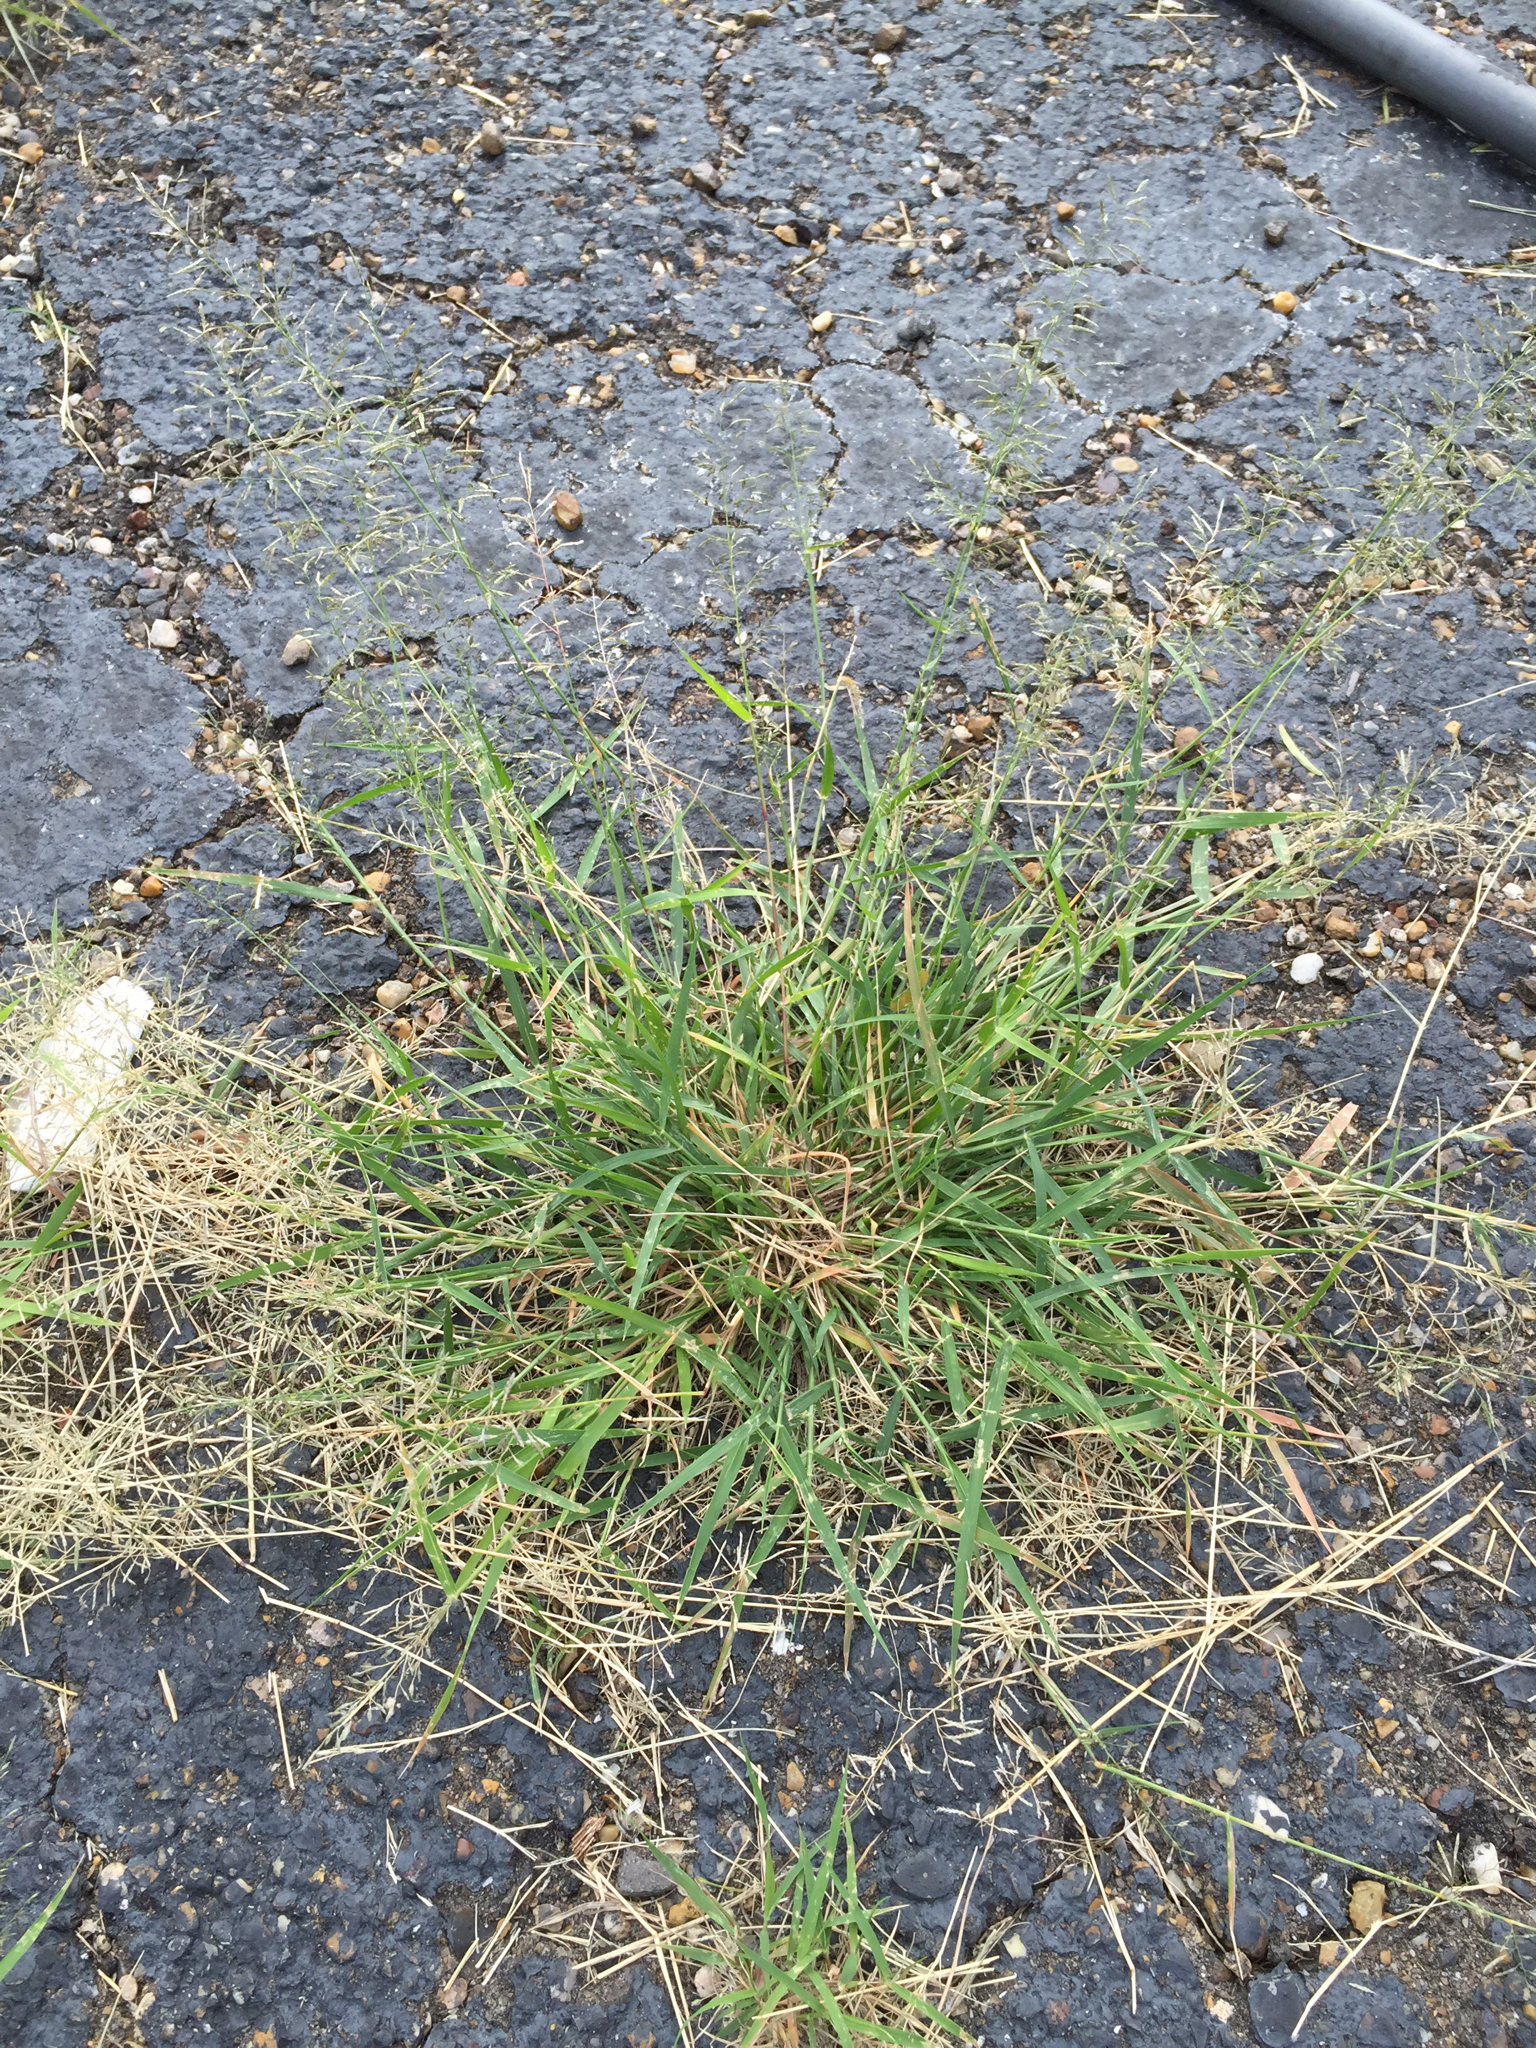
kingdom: Plantae
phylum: Tracheophyta
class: Liliopsida
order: Poales
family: Poaceae
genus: Eragrostis
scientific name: Eragrostis barrelieri
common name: Mediterranean lovegrass
